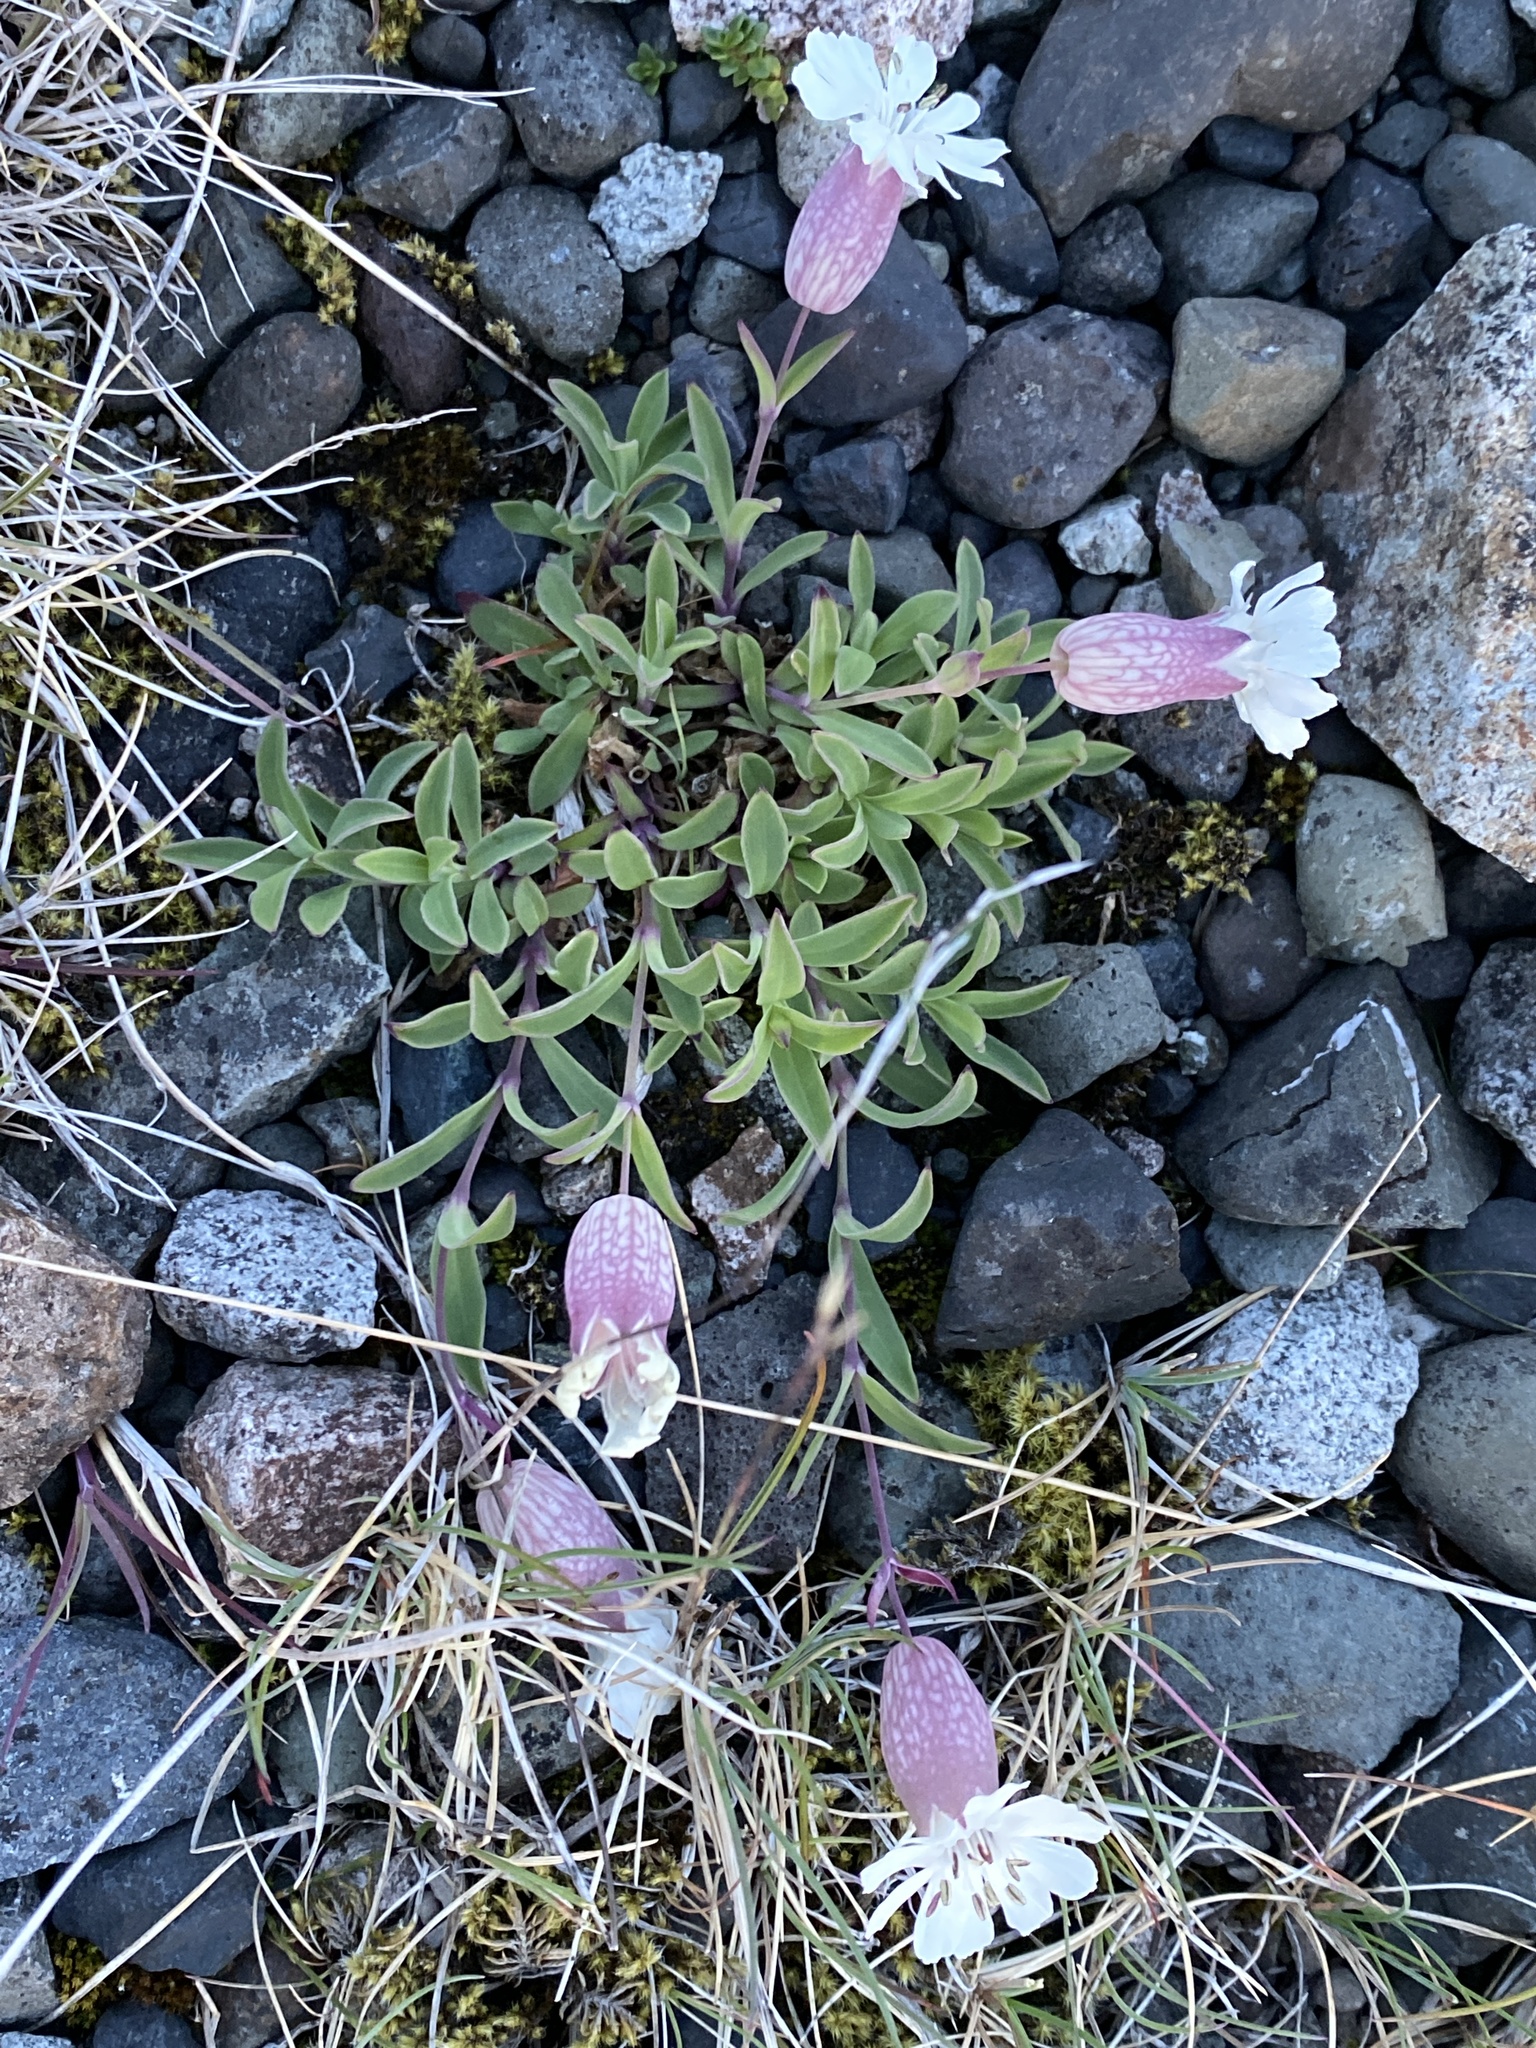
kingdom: Plantae
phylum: Tracheophyta
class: Magnoliopsida
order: Caryophyllales
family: Caryophyllaceae
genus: Silene
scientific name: Silene uniflora
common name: Sea campion
